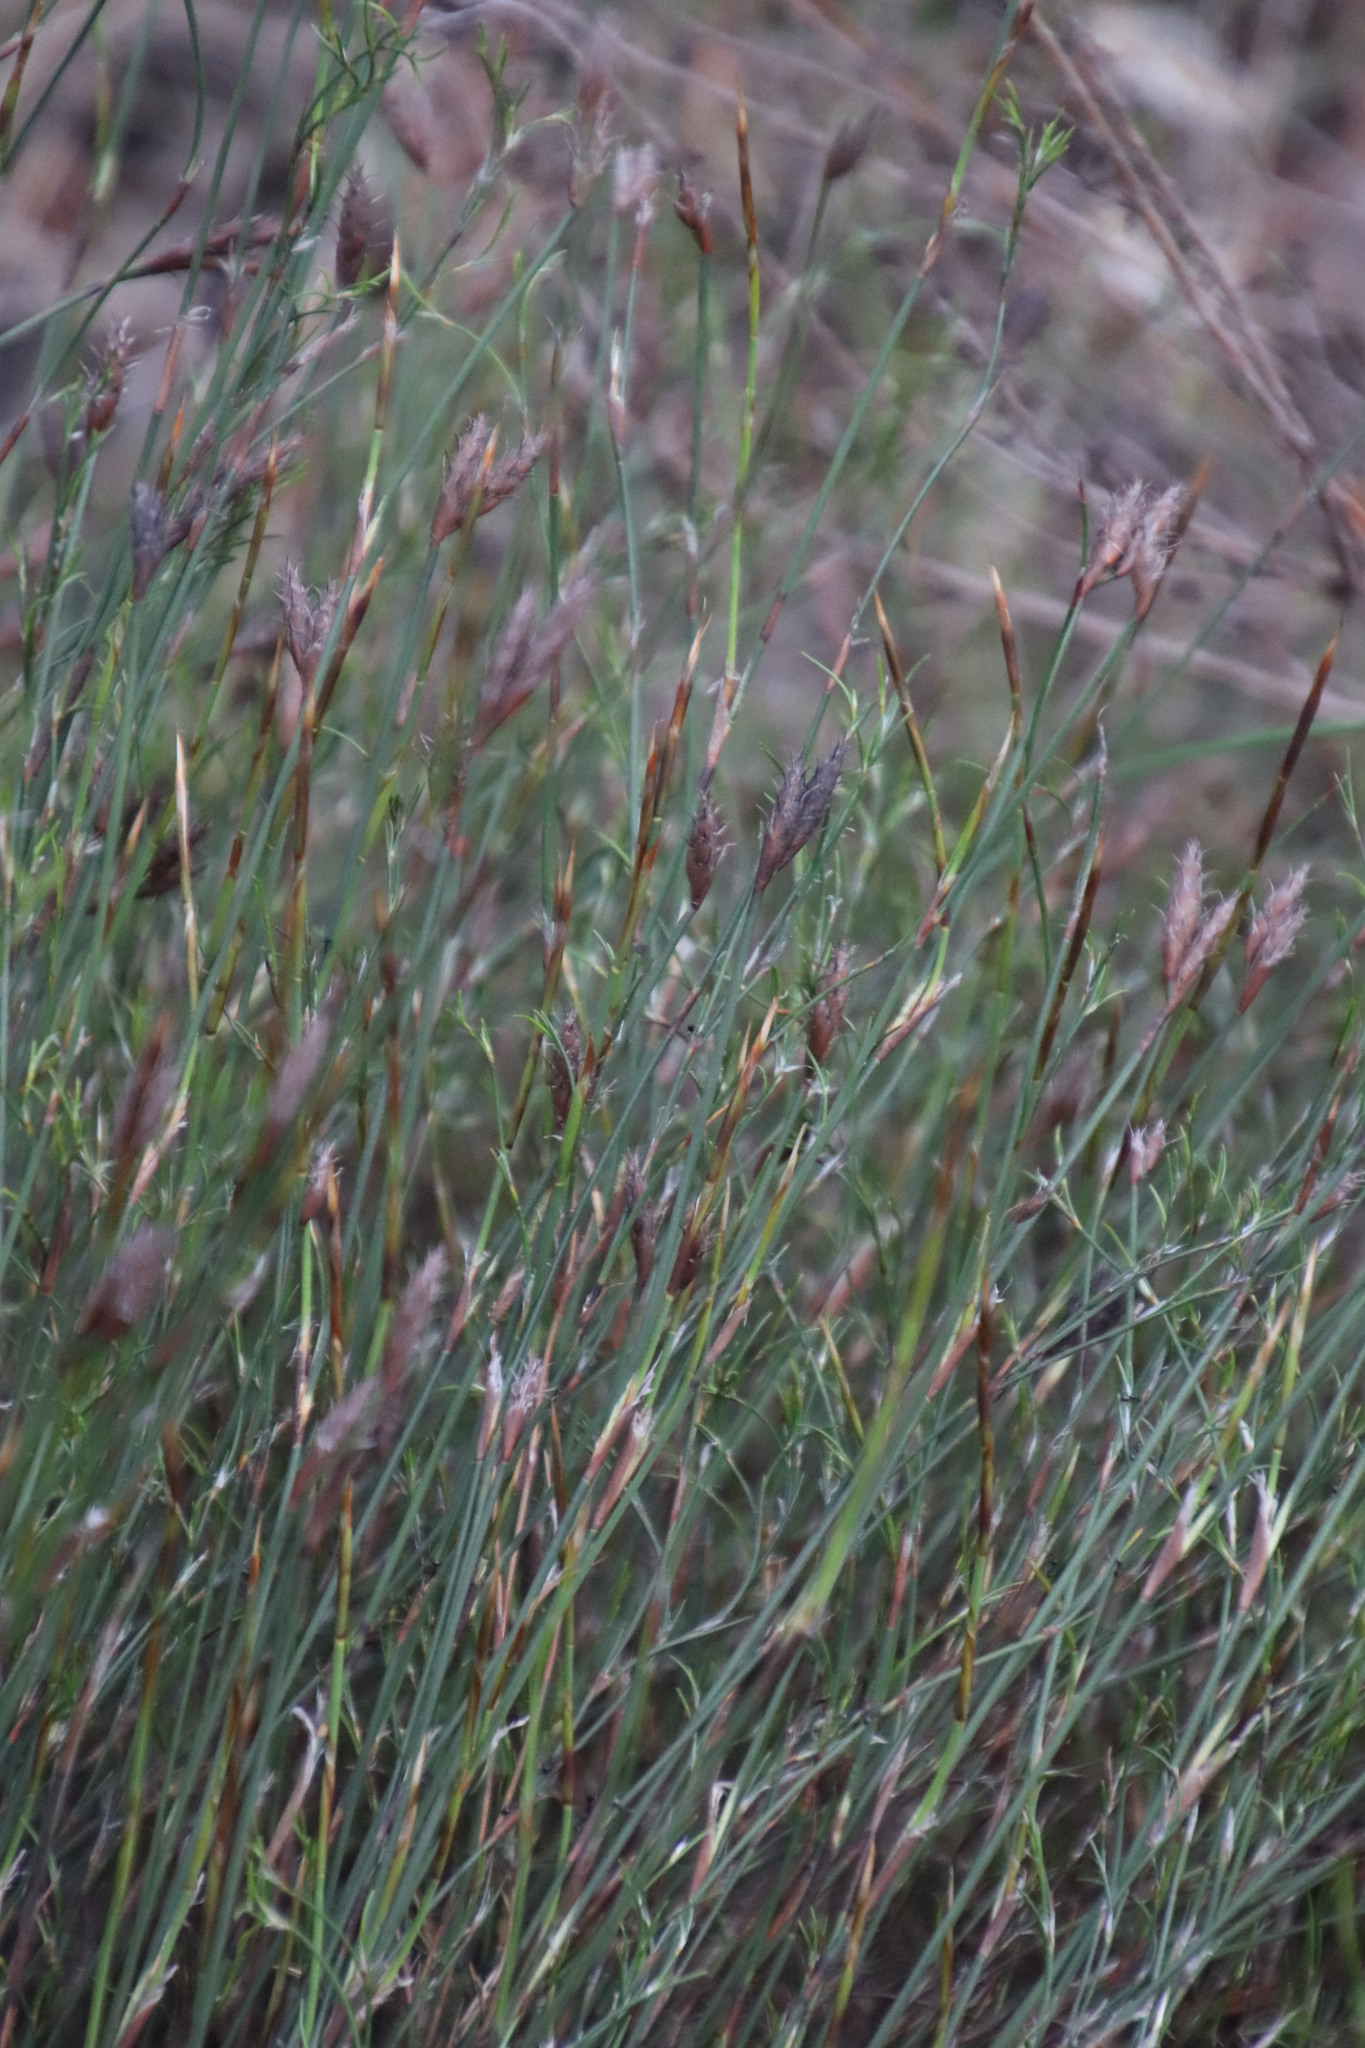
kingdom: Plantae
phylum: Tracheophyta
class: Liliopsida
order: Poales
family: Restionaceae
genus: Restio
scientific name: Restio capensis
